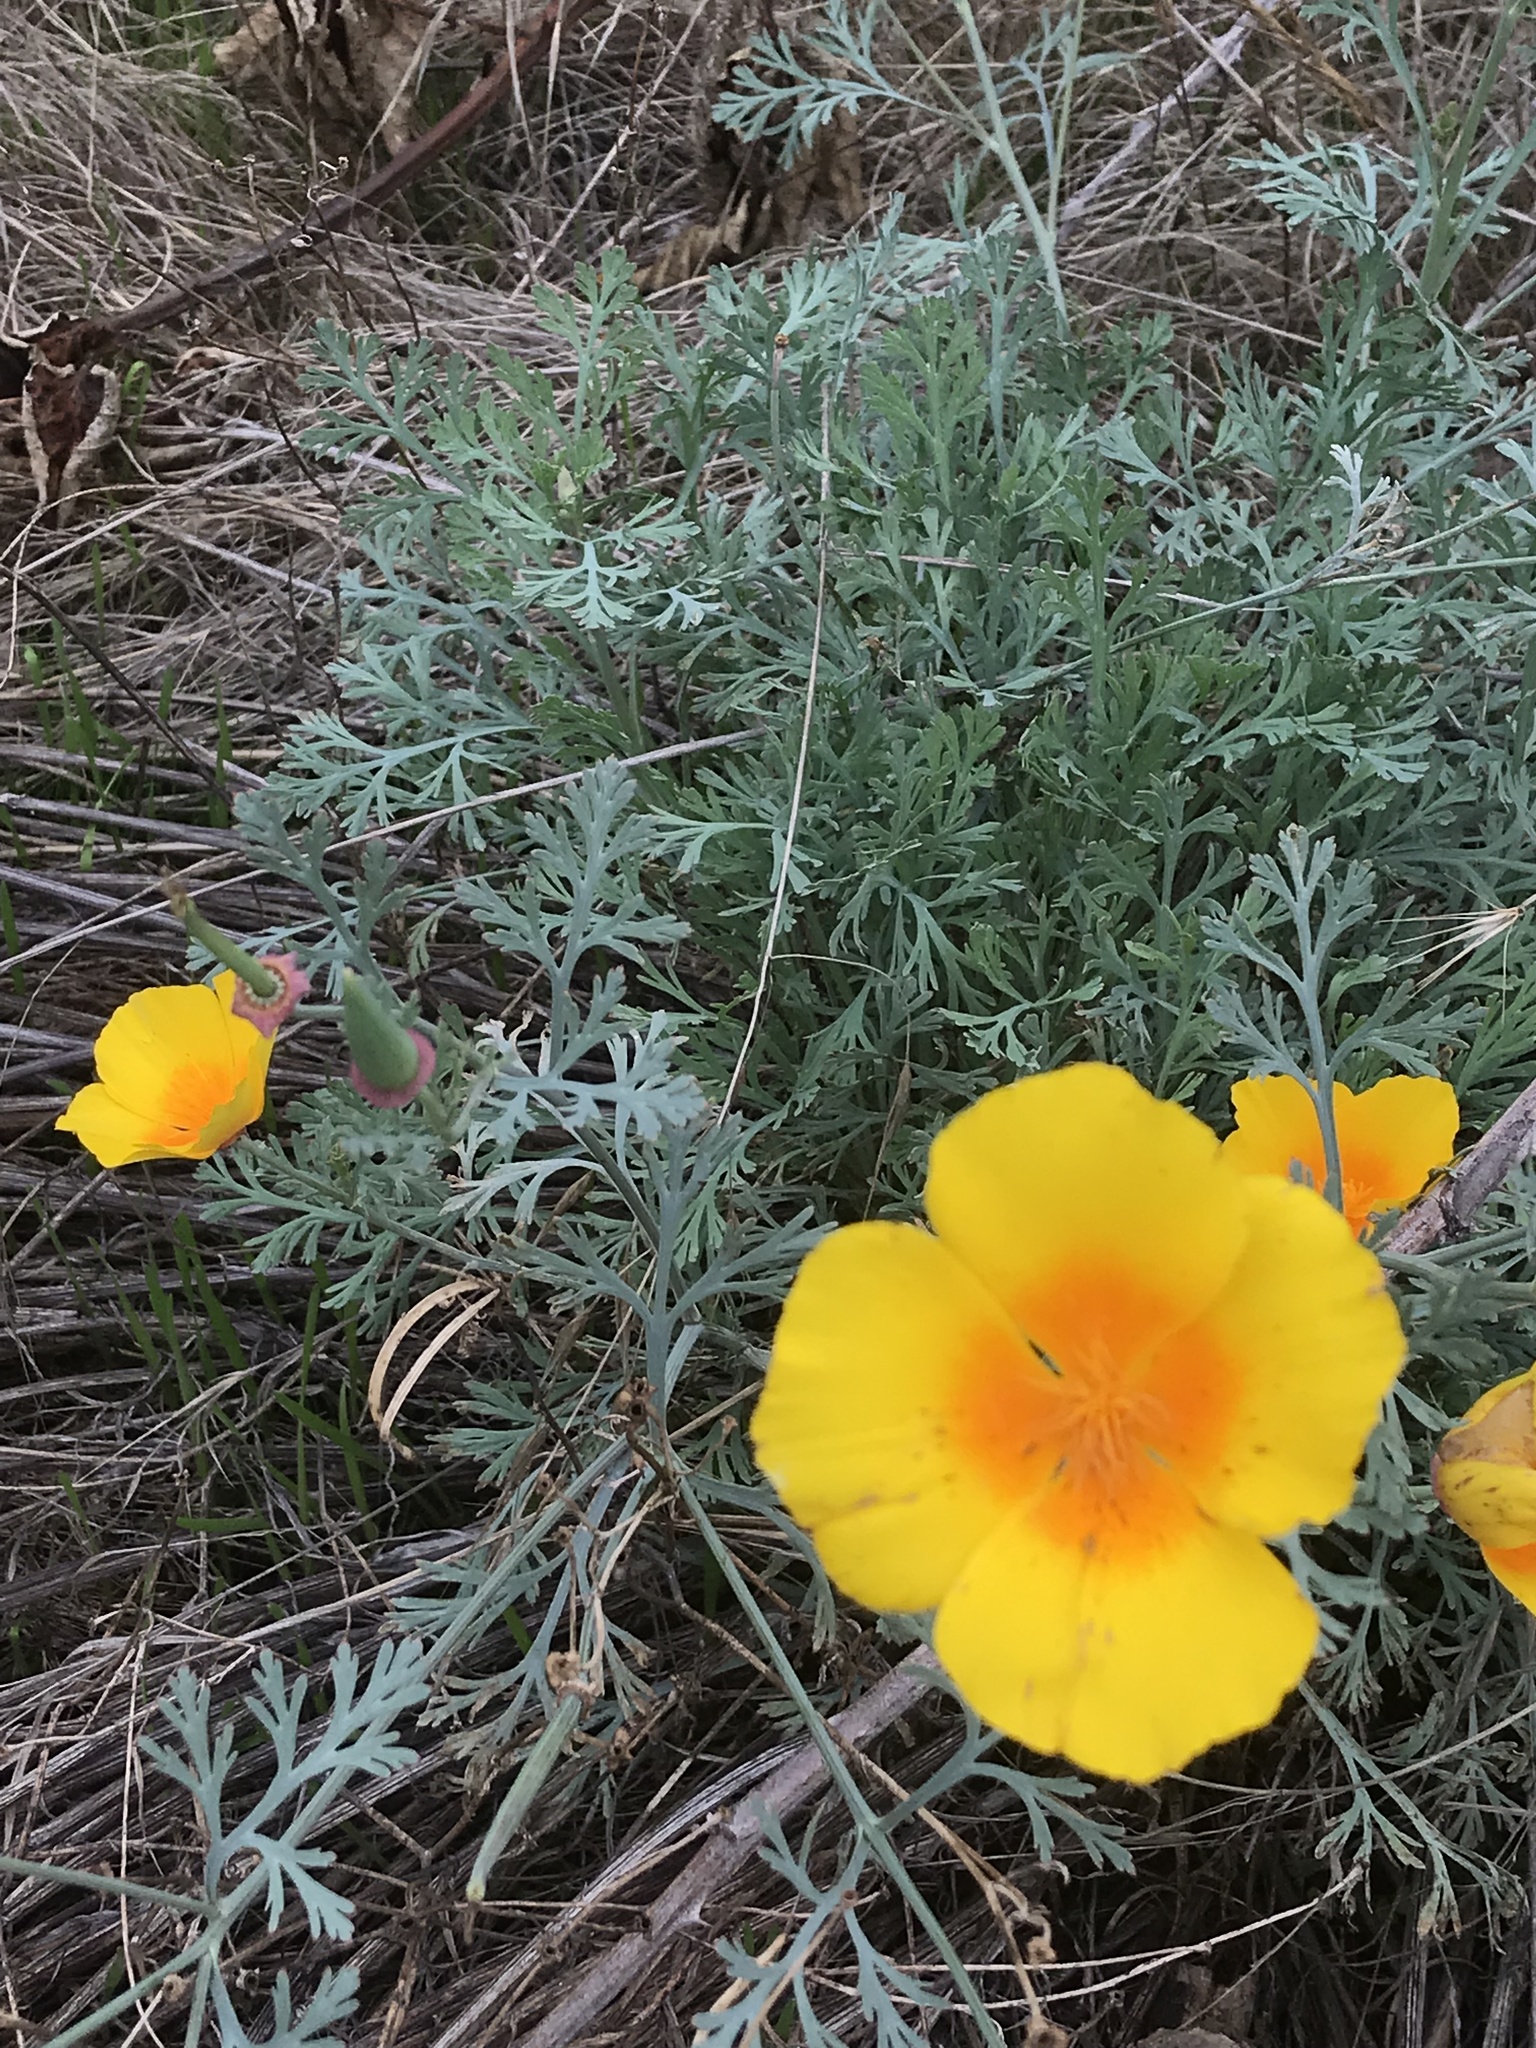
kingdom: Plantae
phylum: Tracheophyta
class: Magnoliopsida
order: Ranunculales
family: Papaveraceae
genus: Eschscholzia
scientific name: Eschscholzia californica
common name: California poppy
